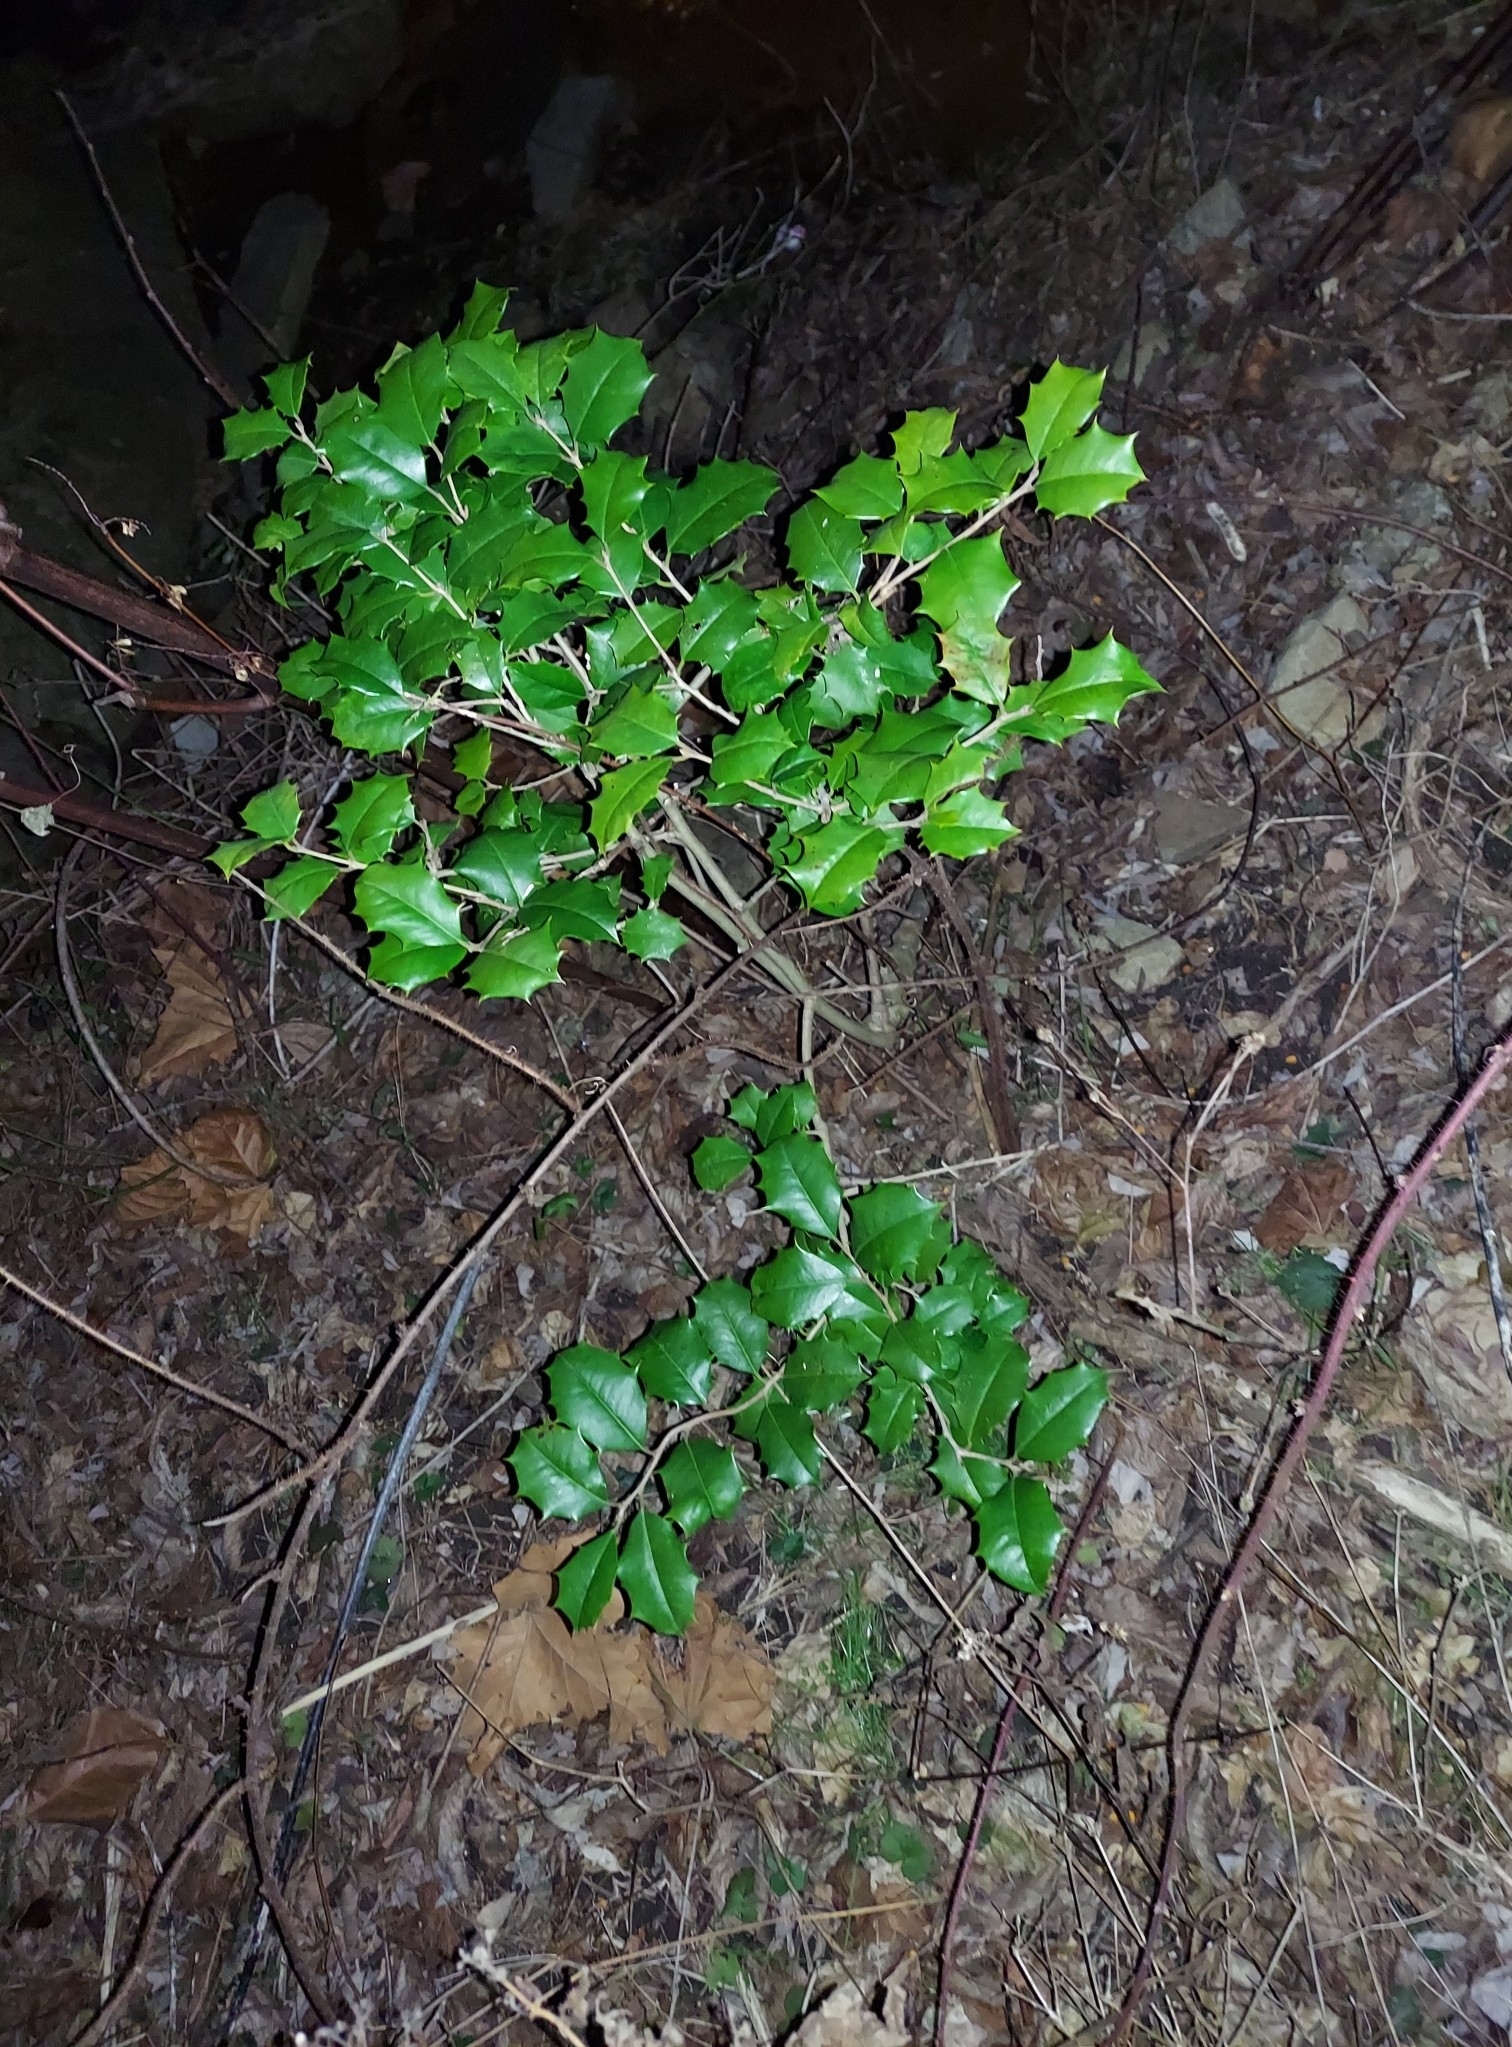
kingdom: Plantae
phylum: Tracheophyta
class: Magnoliopsida
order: Aquifoliales
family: Aquifoliaceae
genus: Ilex
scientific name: Ilex opaca
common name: American holly
